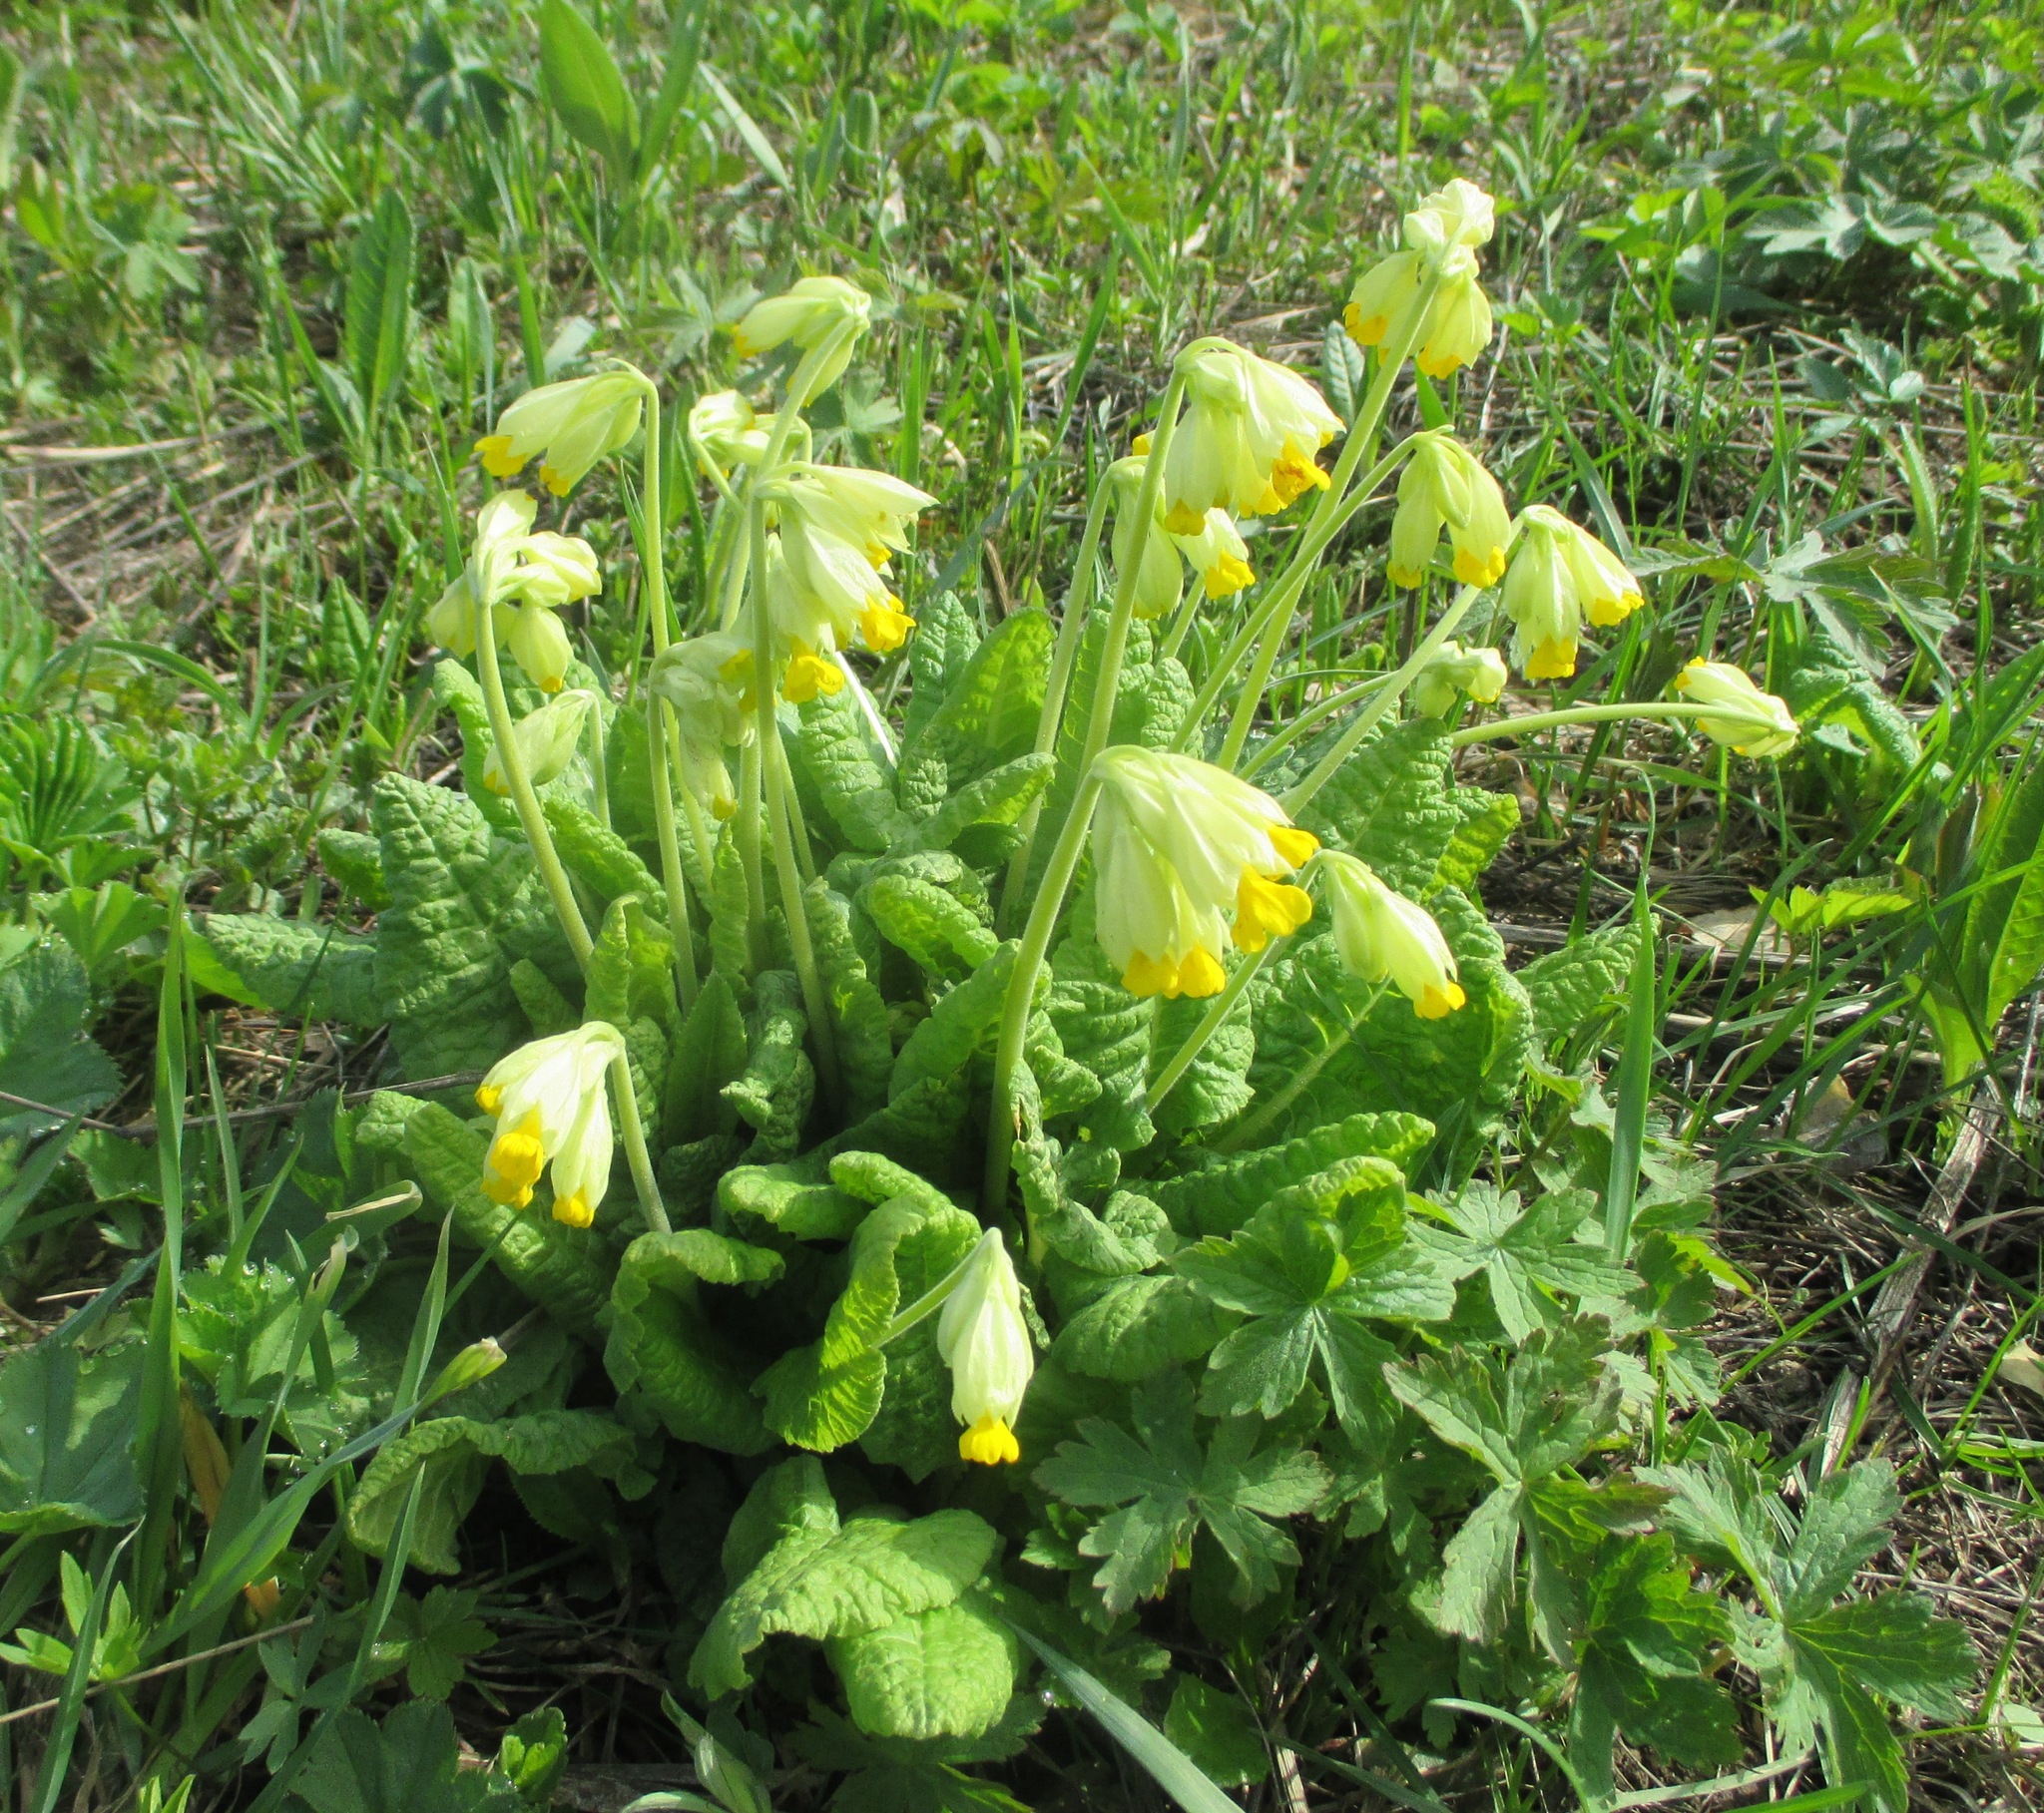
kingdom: Plantae
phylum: Tracheophyta
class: Magnoliopsida
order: Ericales
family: Primulaceae
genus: Primula
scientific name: Primula veris
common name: Cowslip
